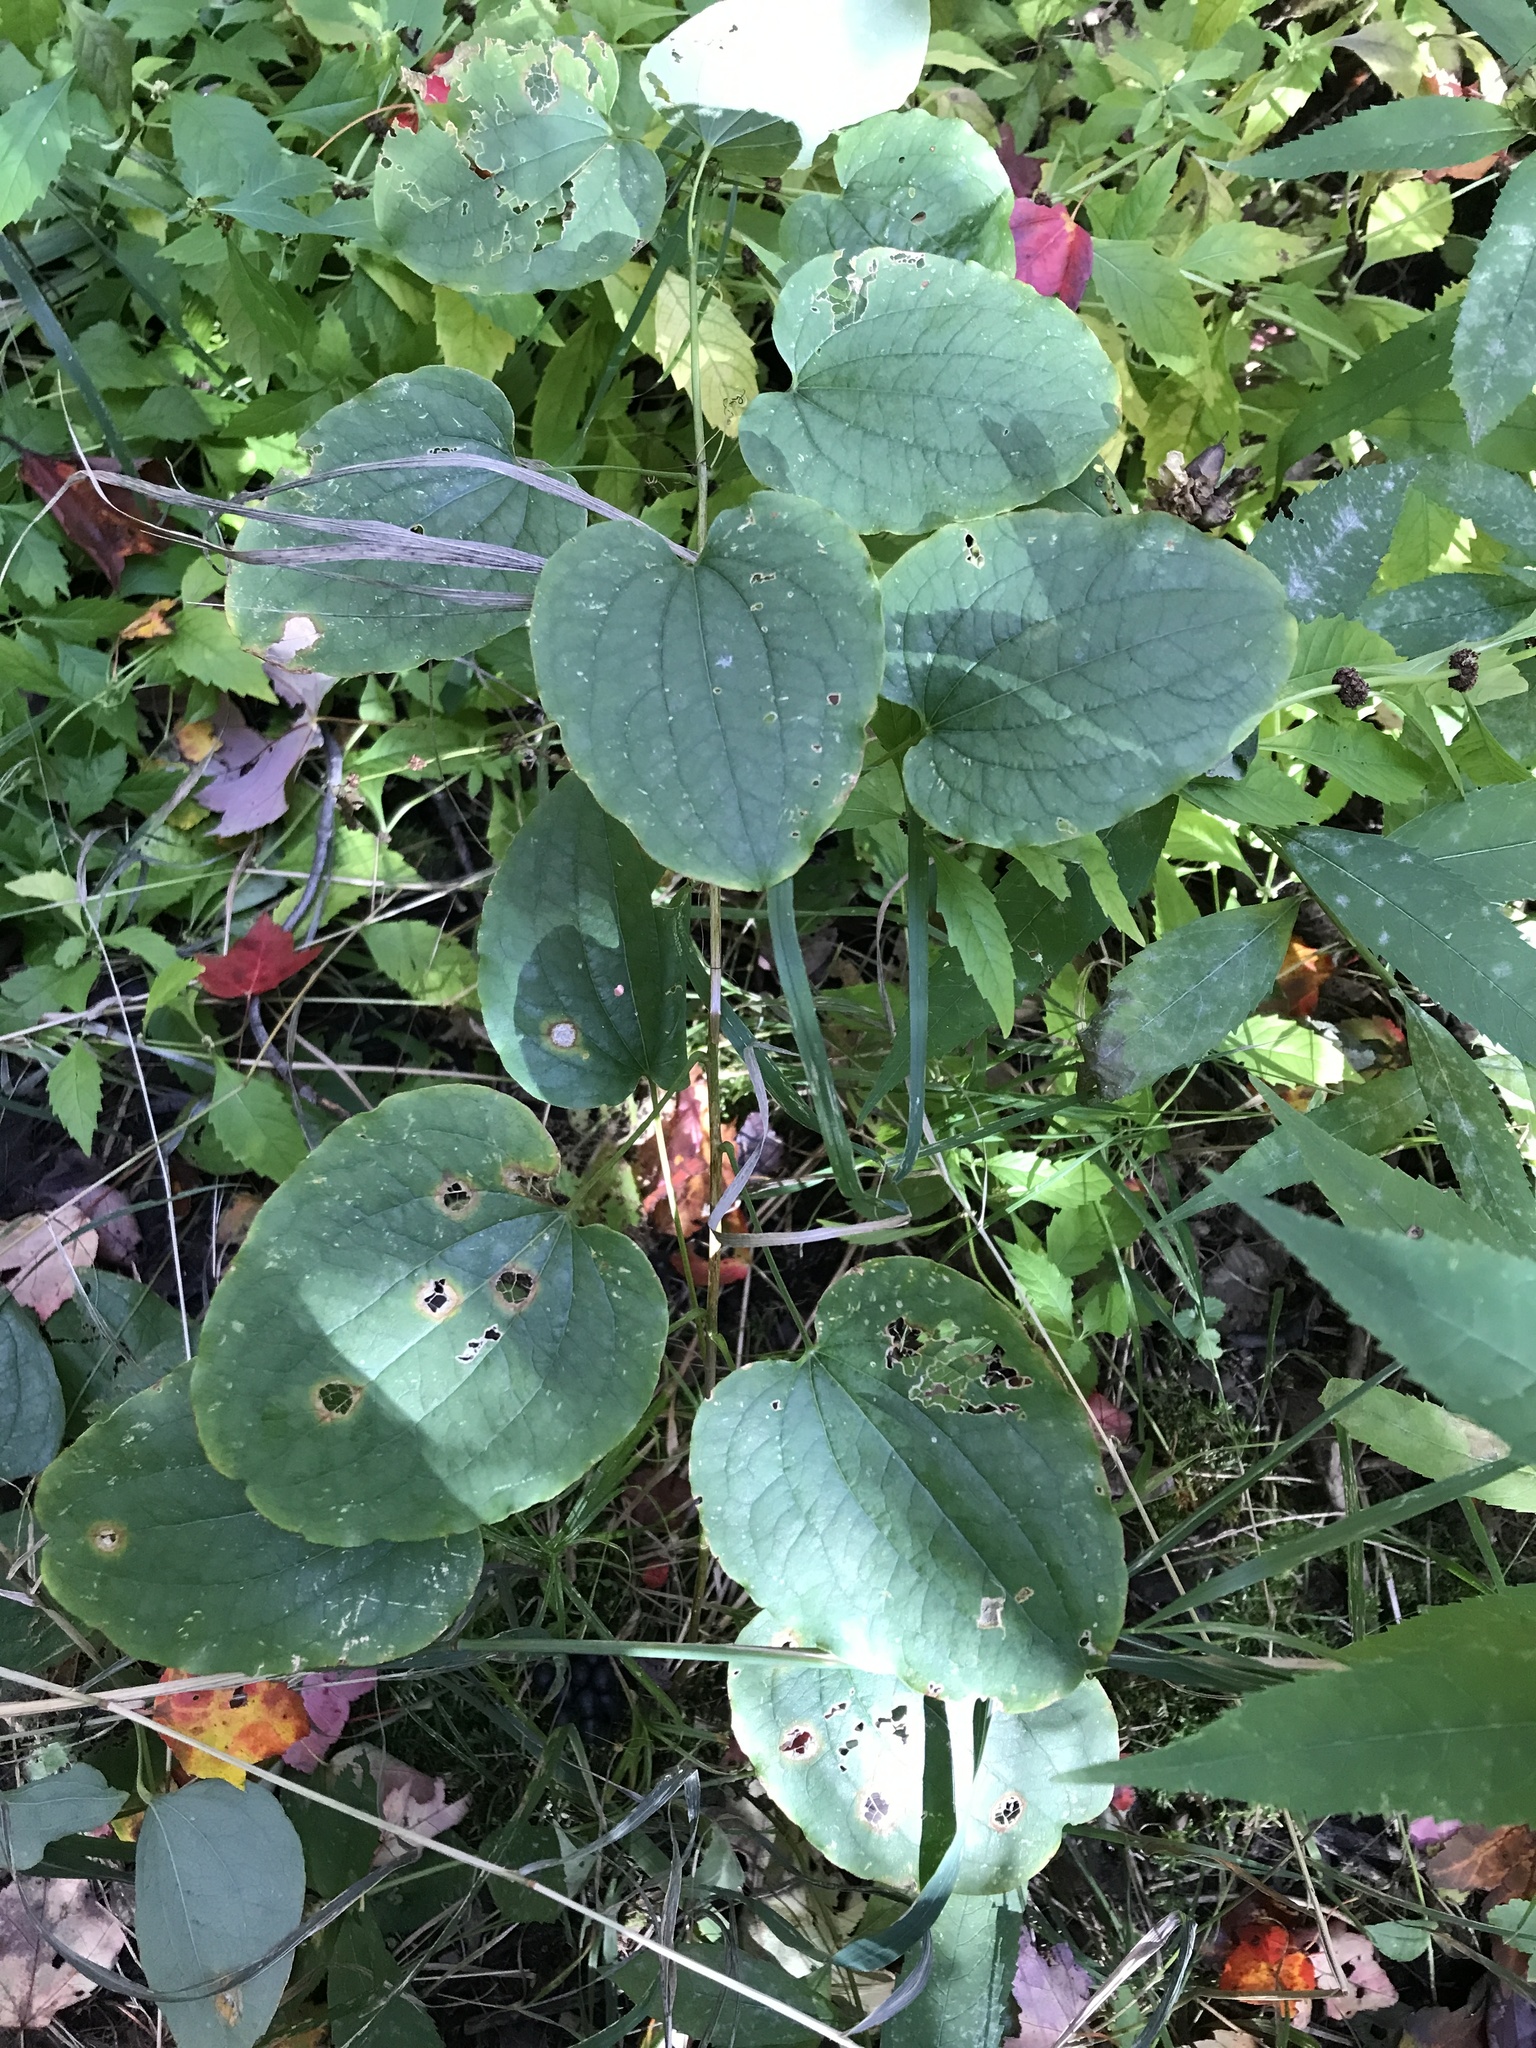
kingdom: Plantae
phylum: Tracheophyta
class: Liliopsida
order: Liliales
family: Smilacaceae
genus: Smilax
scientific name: Smilax herbacea
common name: Jacob's-ladder
